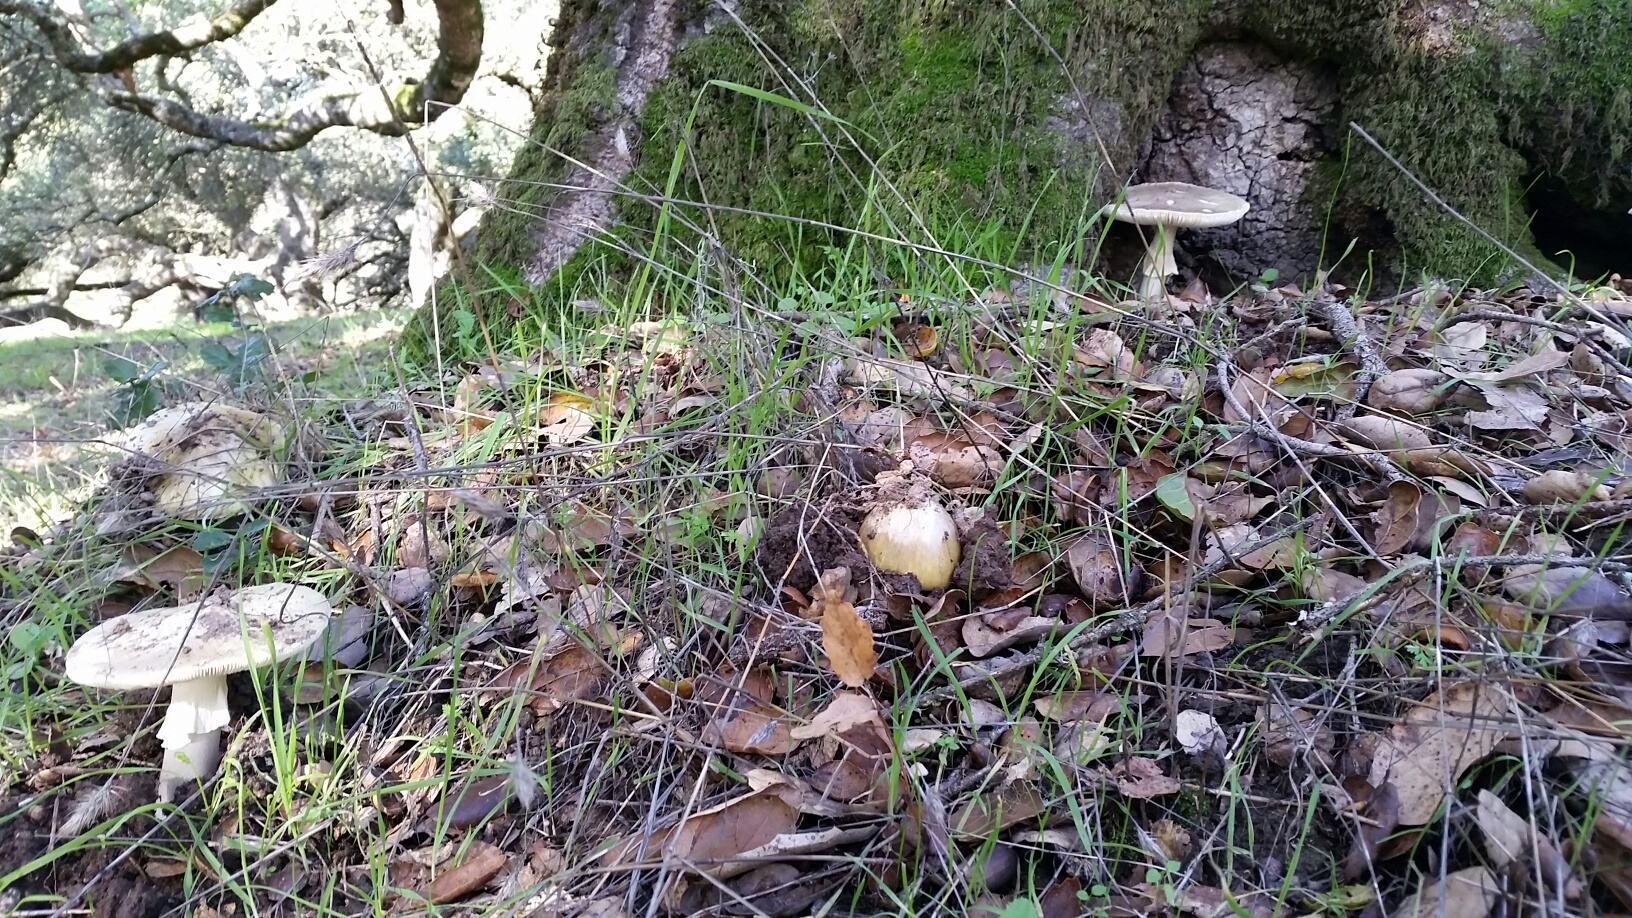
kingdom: Fungi
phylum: Basidiomycota
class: Agaricomycetes
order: Agaricales
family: Amanitaceae
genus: Amanita
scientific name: Amanita phalloides
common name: Death cap
